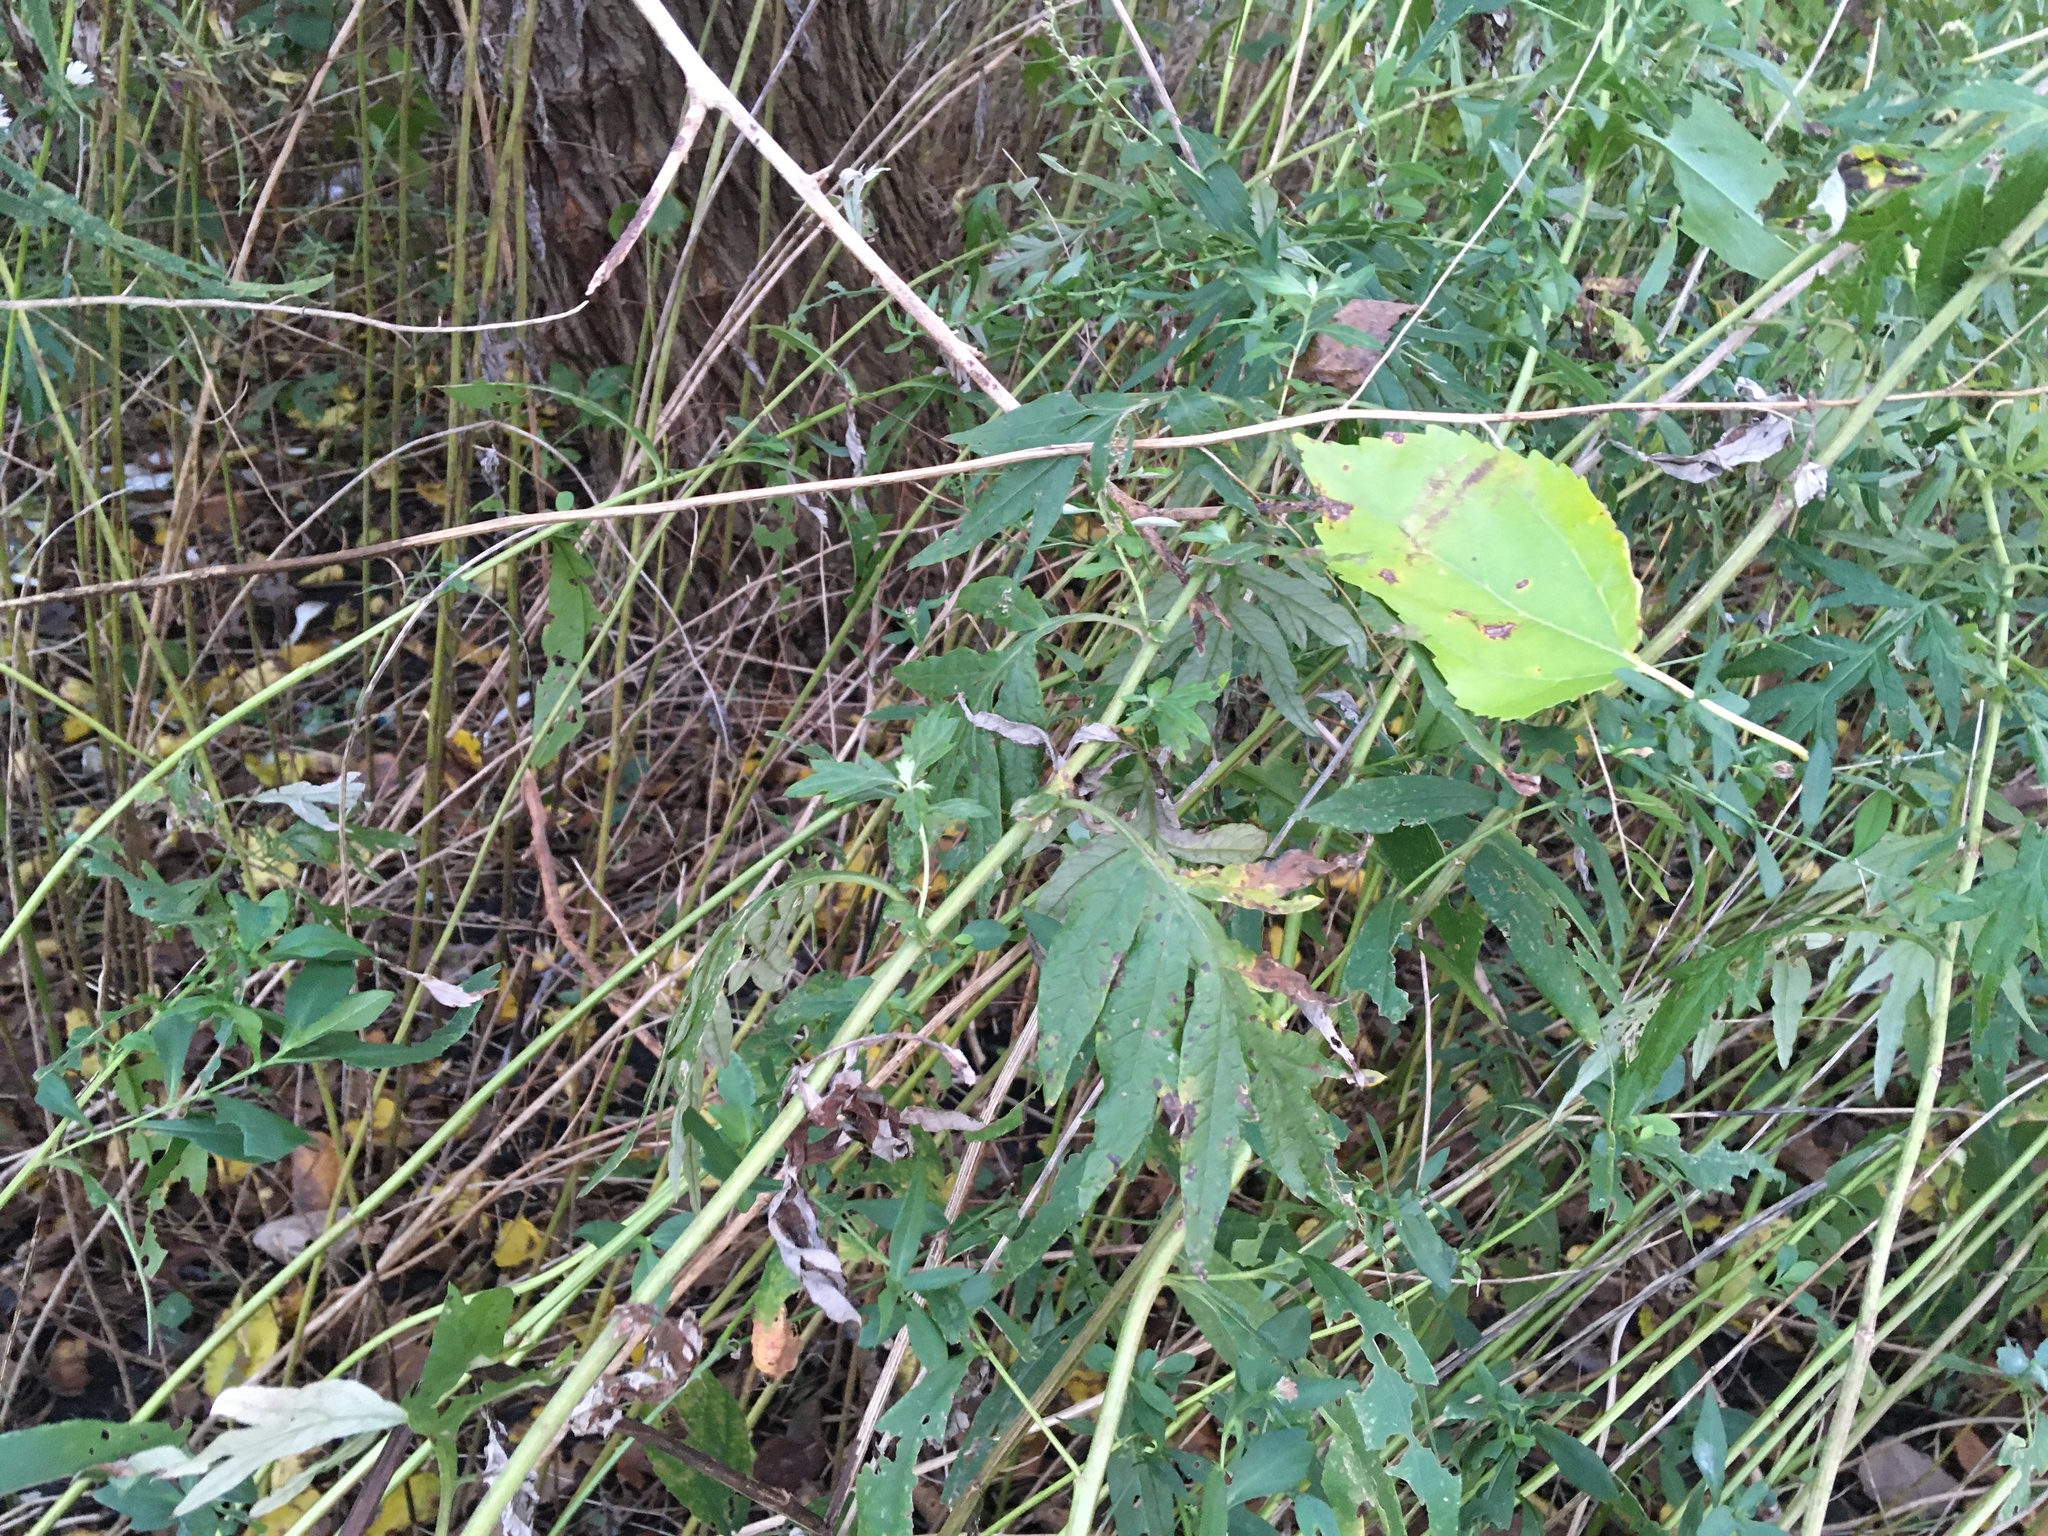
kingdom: Plantae
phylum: Tracheophyta
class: Magnoliopsida
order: Asterales
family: Asteraceae
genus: Artemisia
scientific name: Artemisia vulgaris
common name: Mugwort
